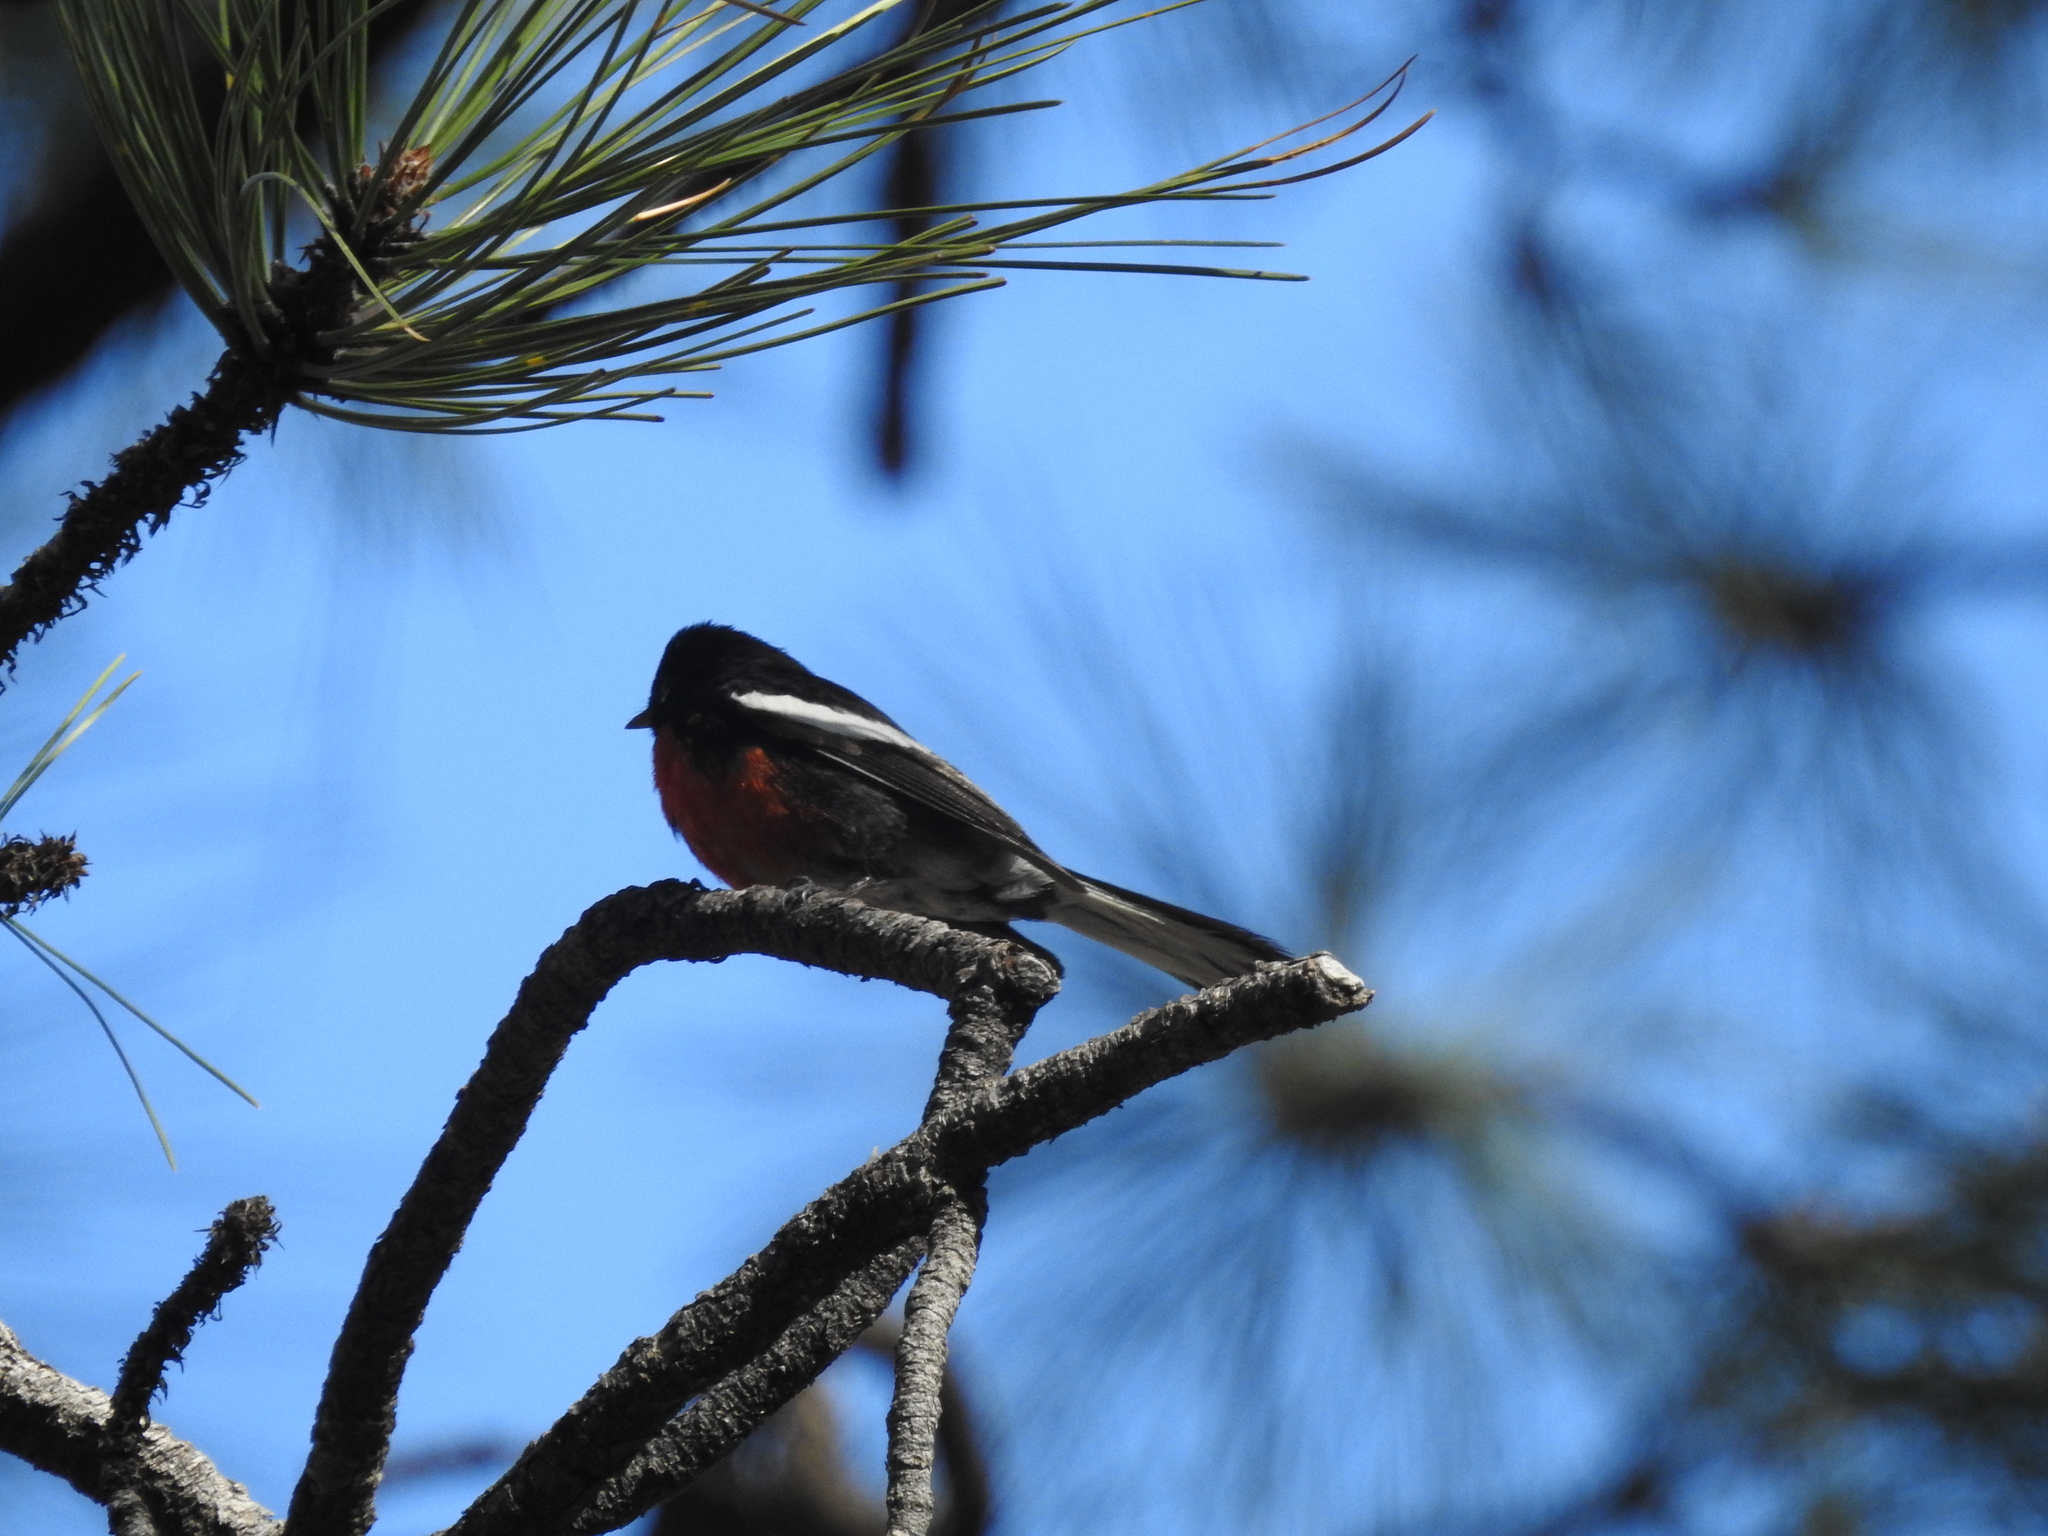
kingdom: Animalia
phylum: Chordata
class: Aves
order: Passeriformes
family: Parulidae
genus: Myioborus
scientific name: Myioborus pictus
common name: Painted whitestart
